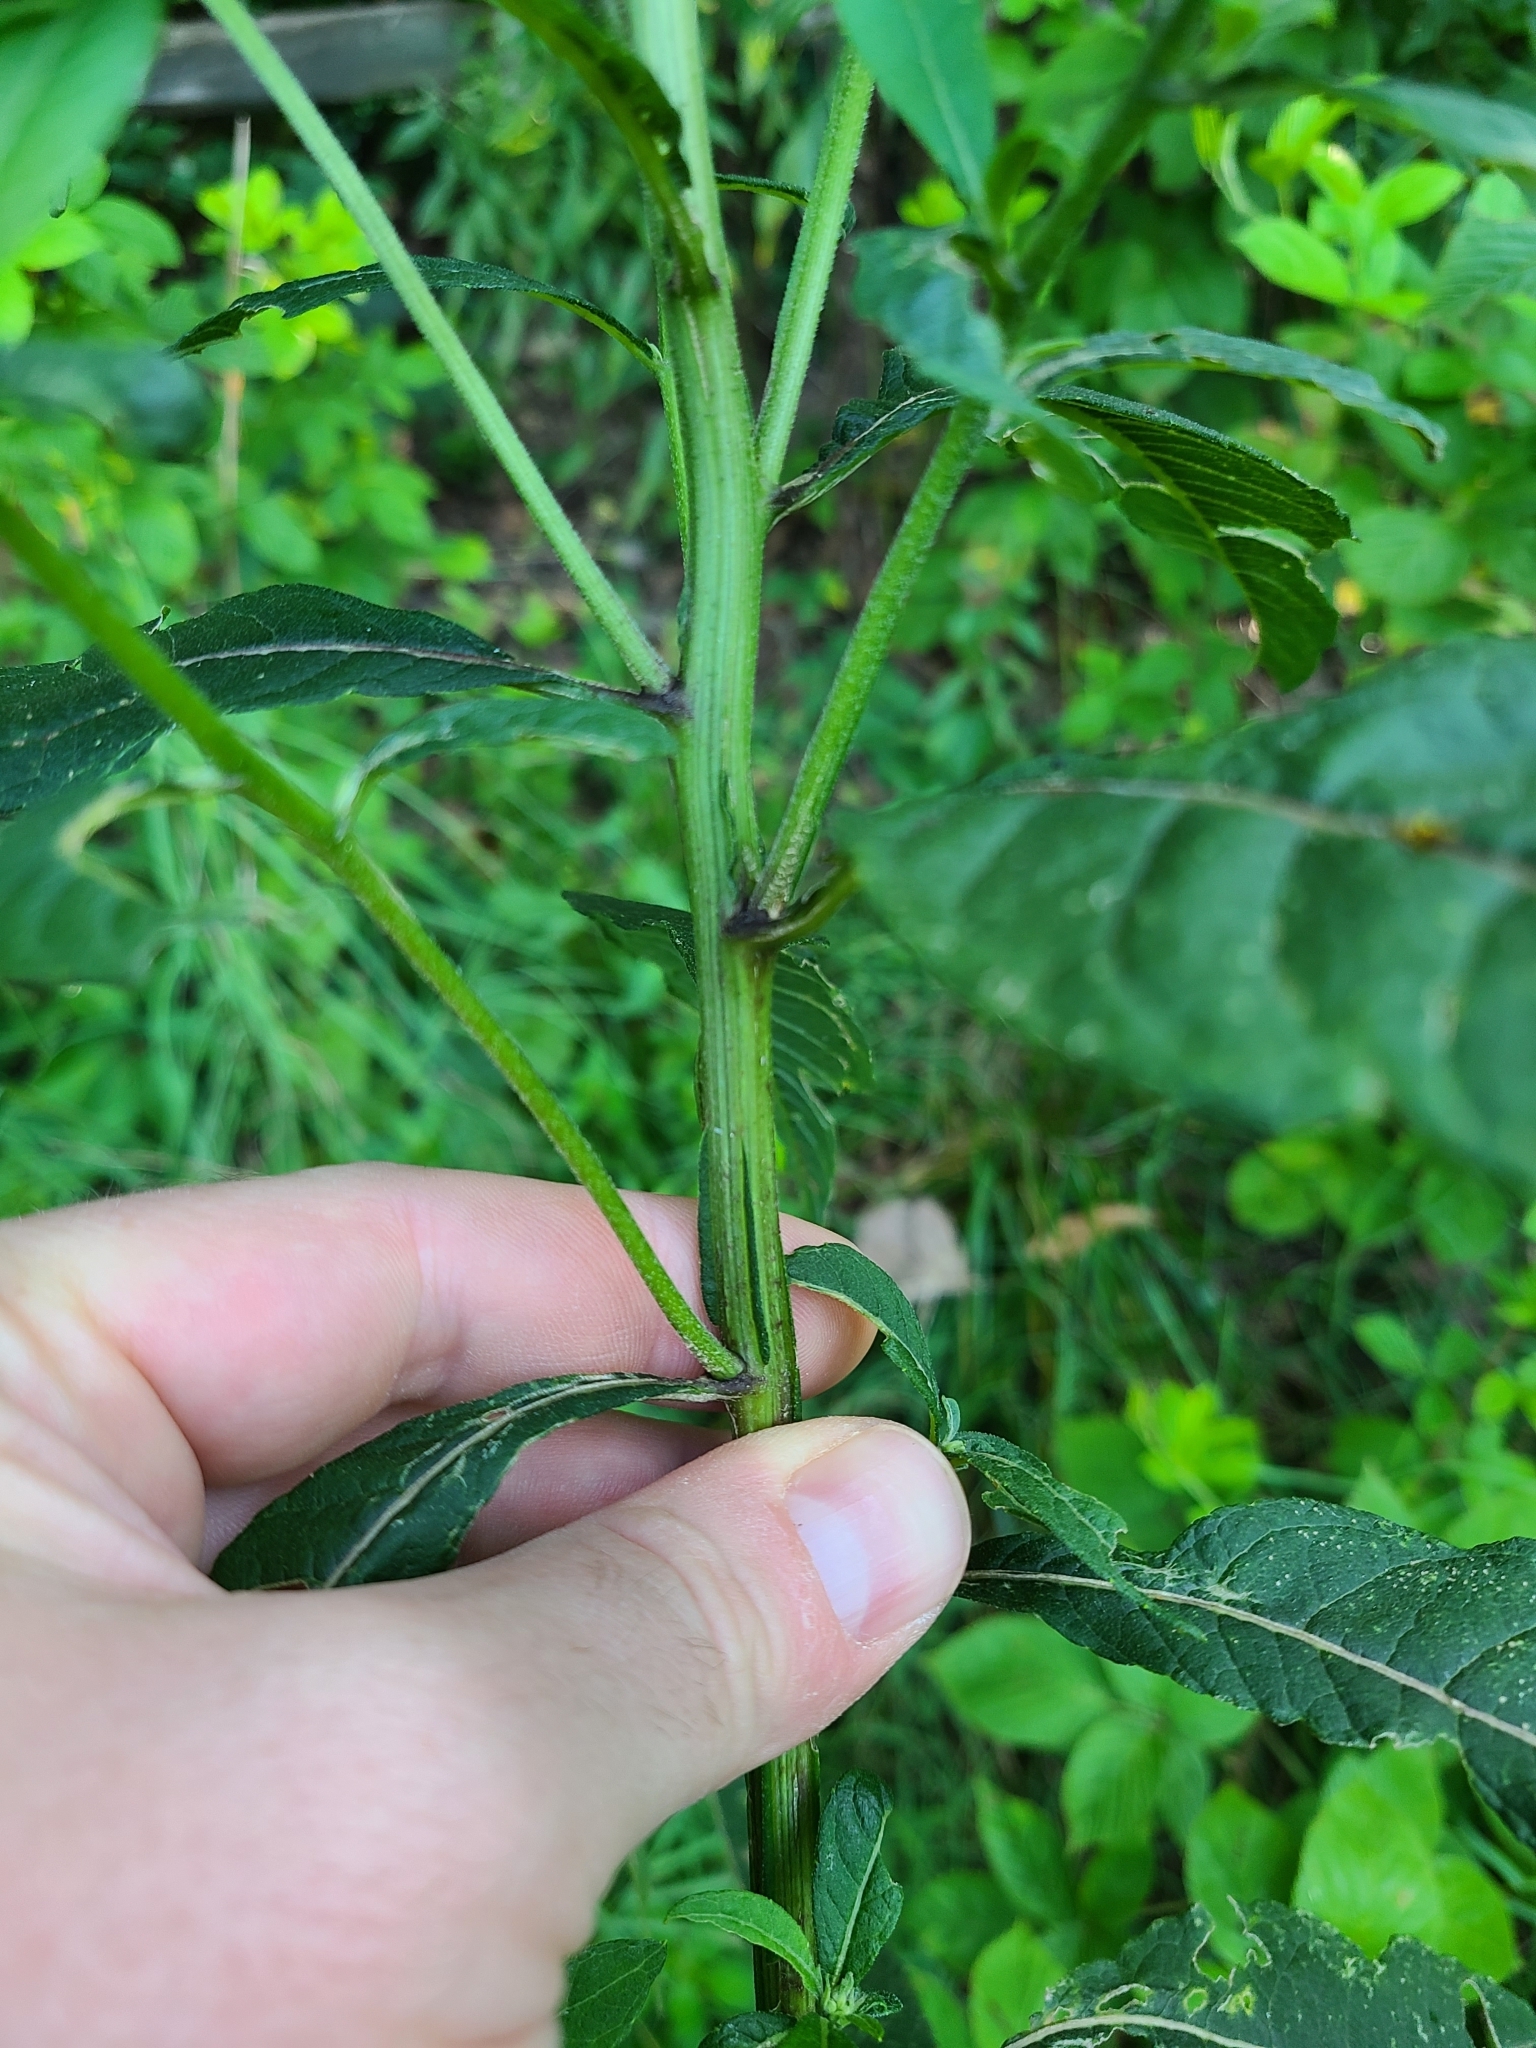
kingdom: Plantae
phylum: Tracheophyta
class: Magnoliopsida
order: Asterales
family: Asteraceae
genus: Verbesina
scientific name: Verbesina alternifolia
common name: Wingstem
